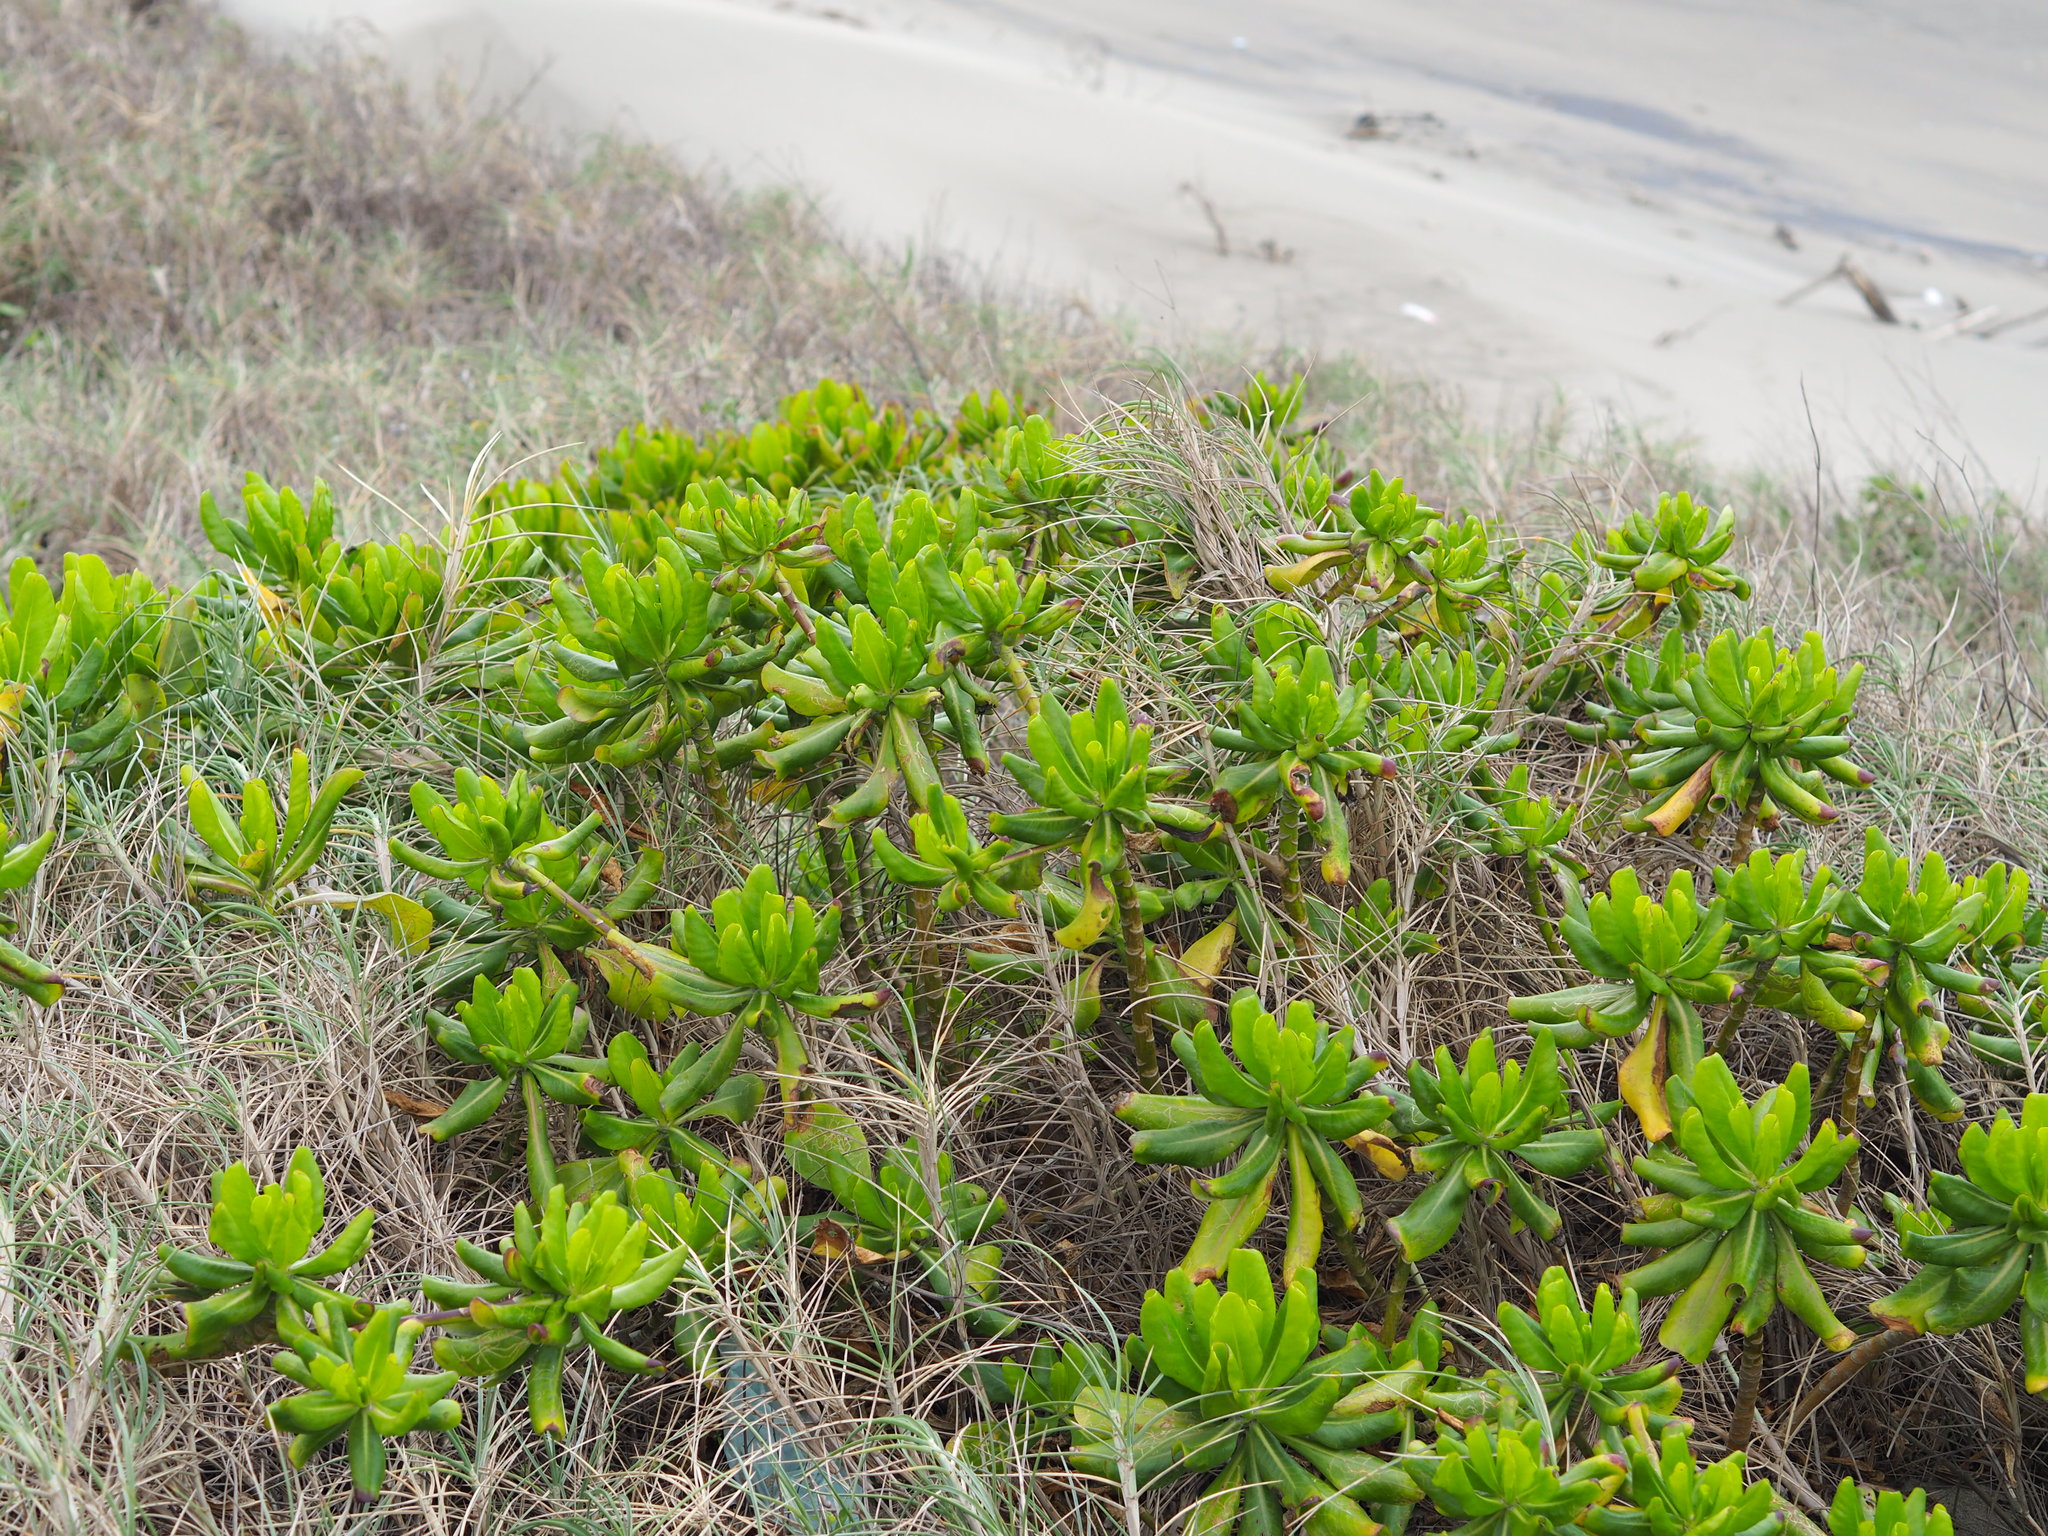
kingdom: Plantae
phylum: Tracheophyta
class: Magnoliopsida
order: Asterales
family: Goodeniaceae
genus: Scaevola
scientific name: Scaevola taccada
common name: Sea lettucetree
